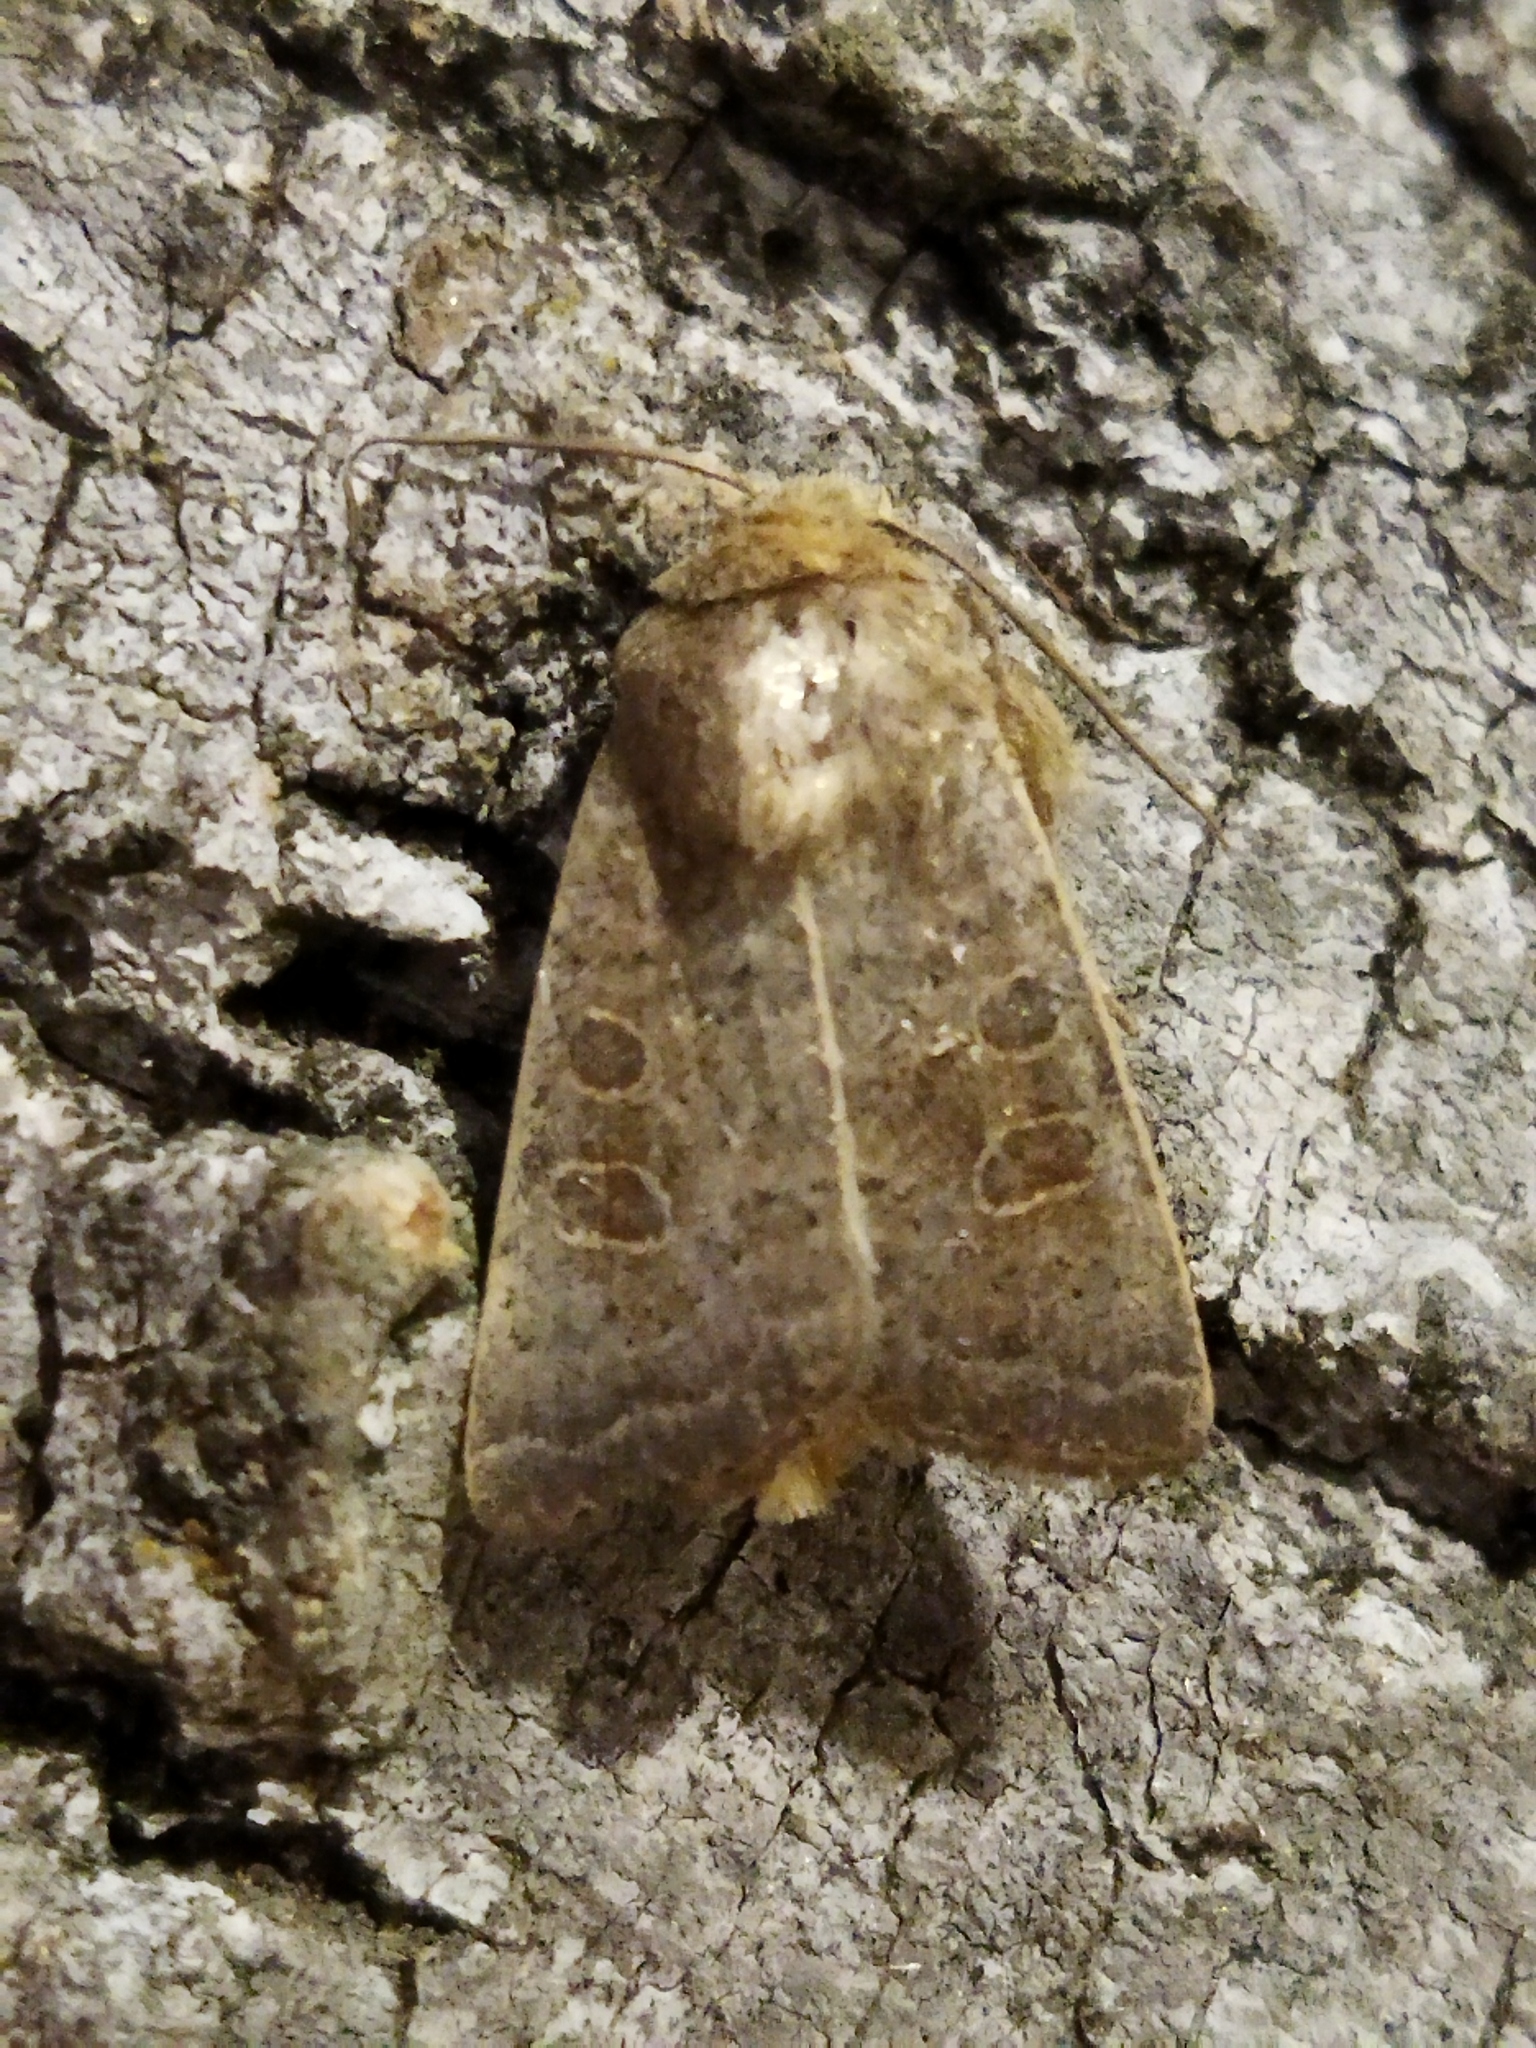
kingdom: Animalia
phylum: Arthropoda
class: Insecta
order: Lepidoptera
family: Noctuidae
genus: Hoplodrina
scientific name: Hoplodrina ambigua
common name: Vine's rustic
